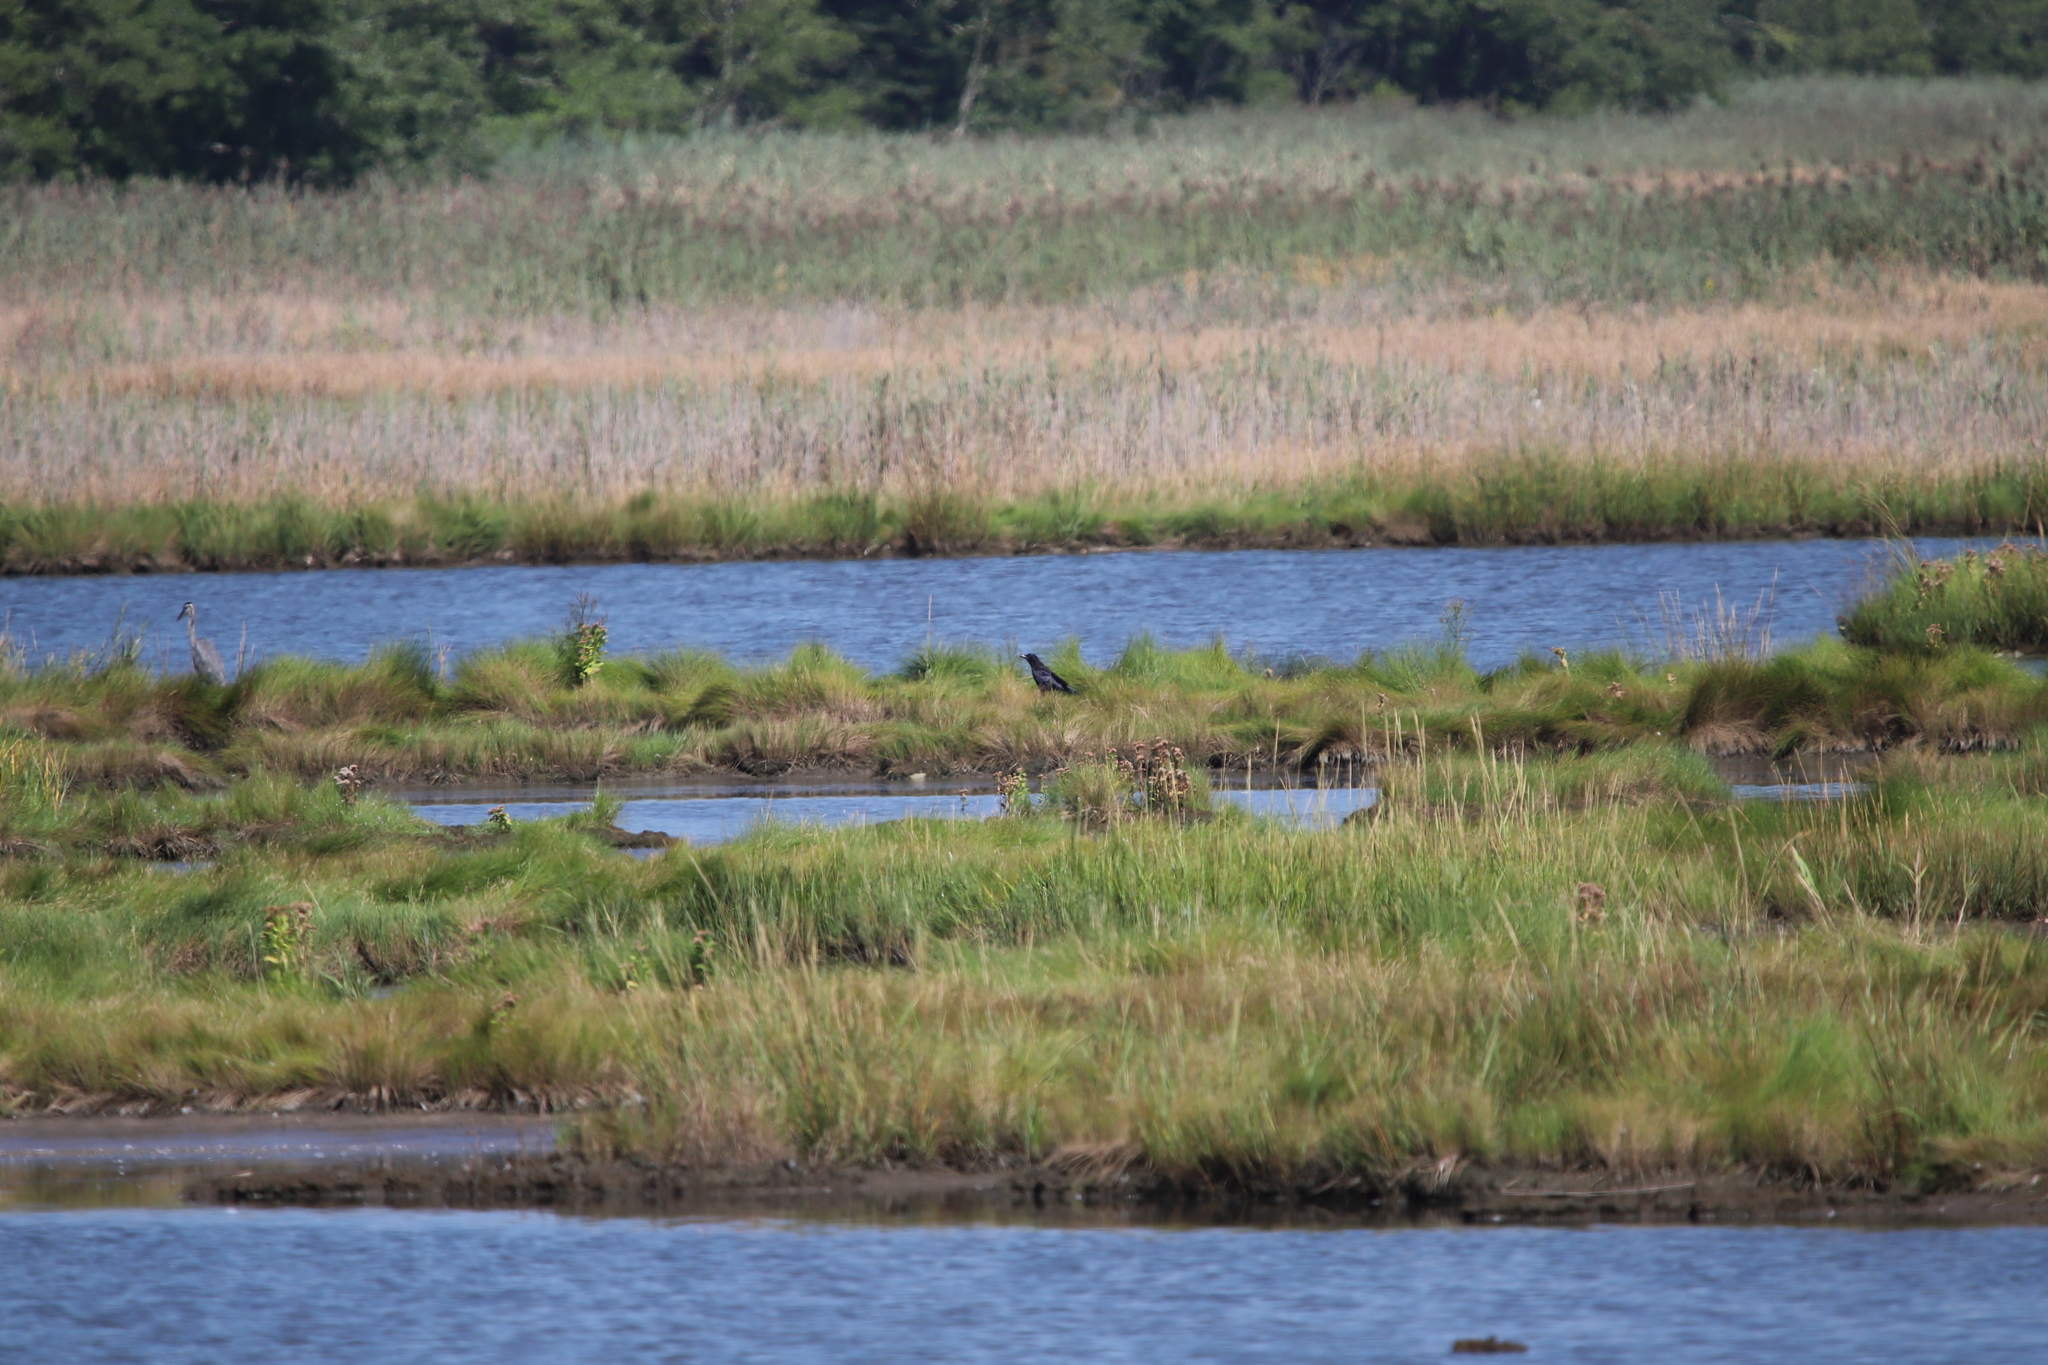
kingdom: Animalia
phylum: Chordata
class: Aves
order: Passeriformes
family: Corvidae
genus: Corvus
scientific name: Corvus brachyrhynchos
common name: American crow
